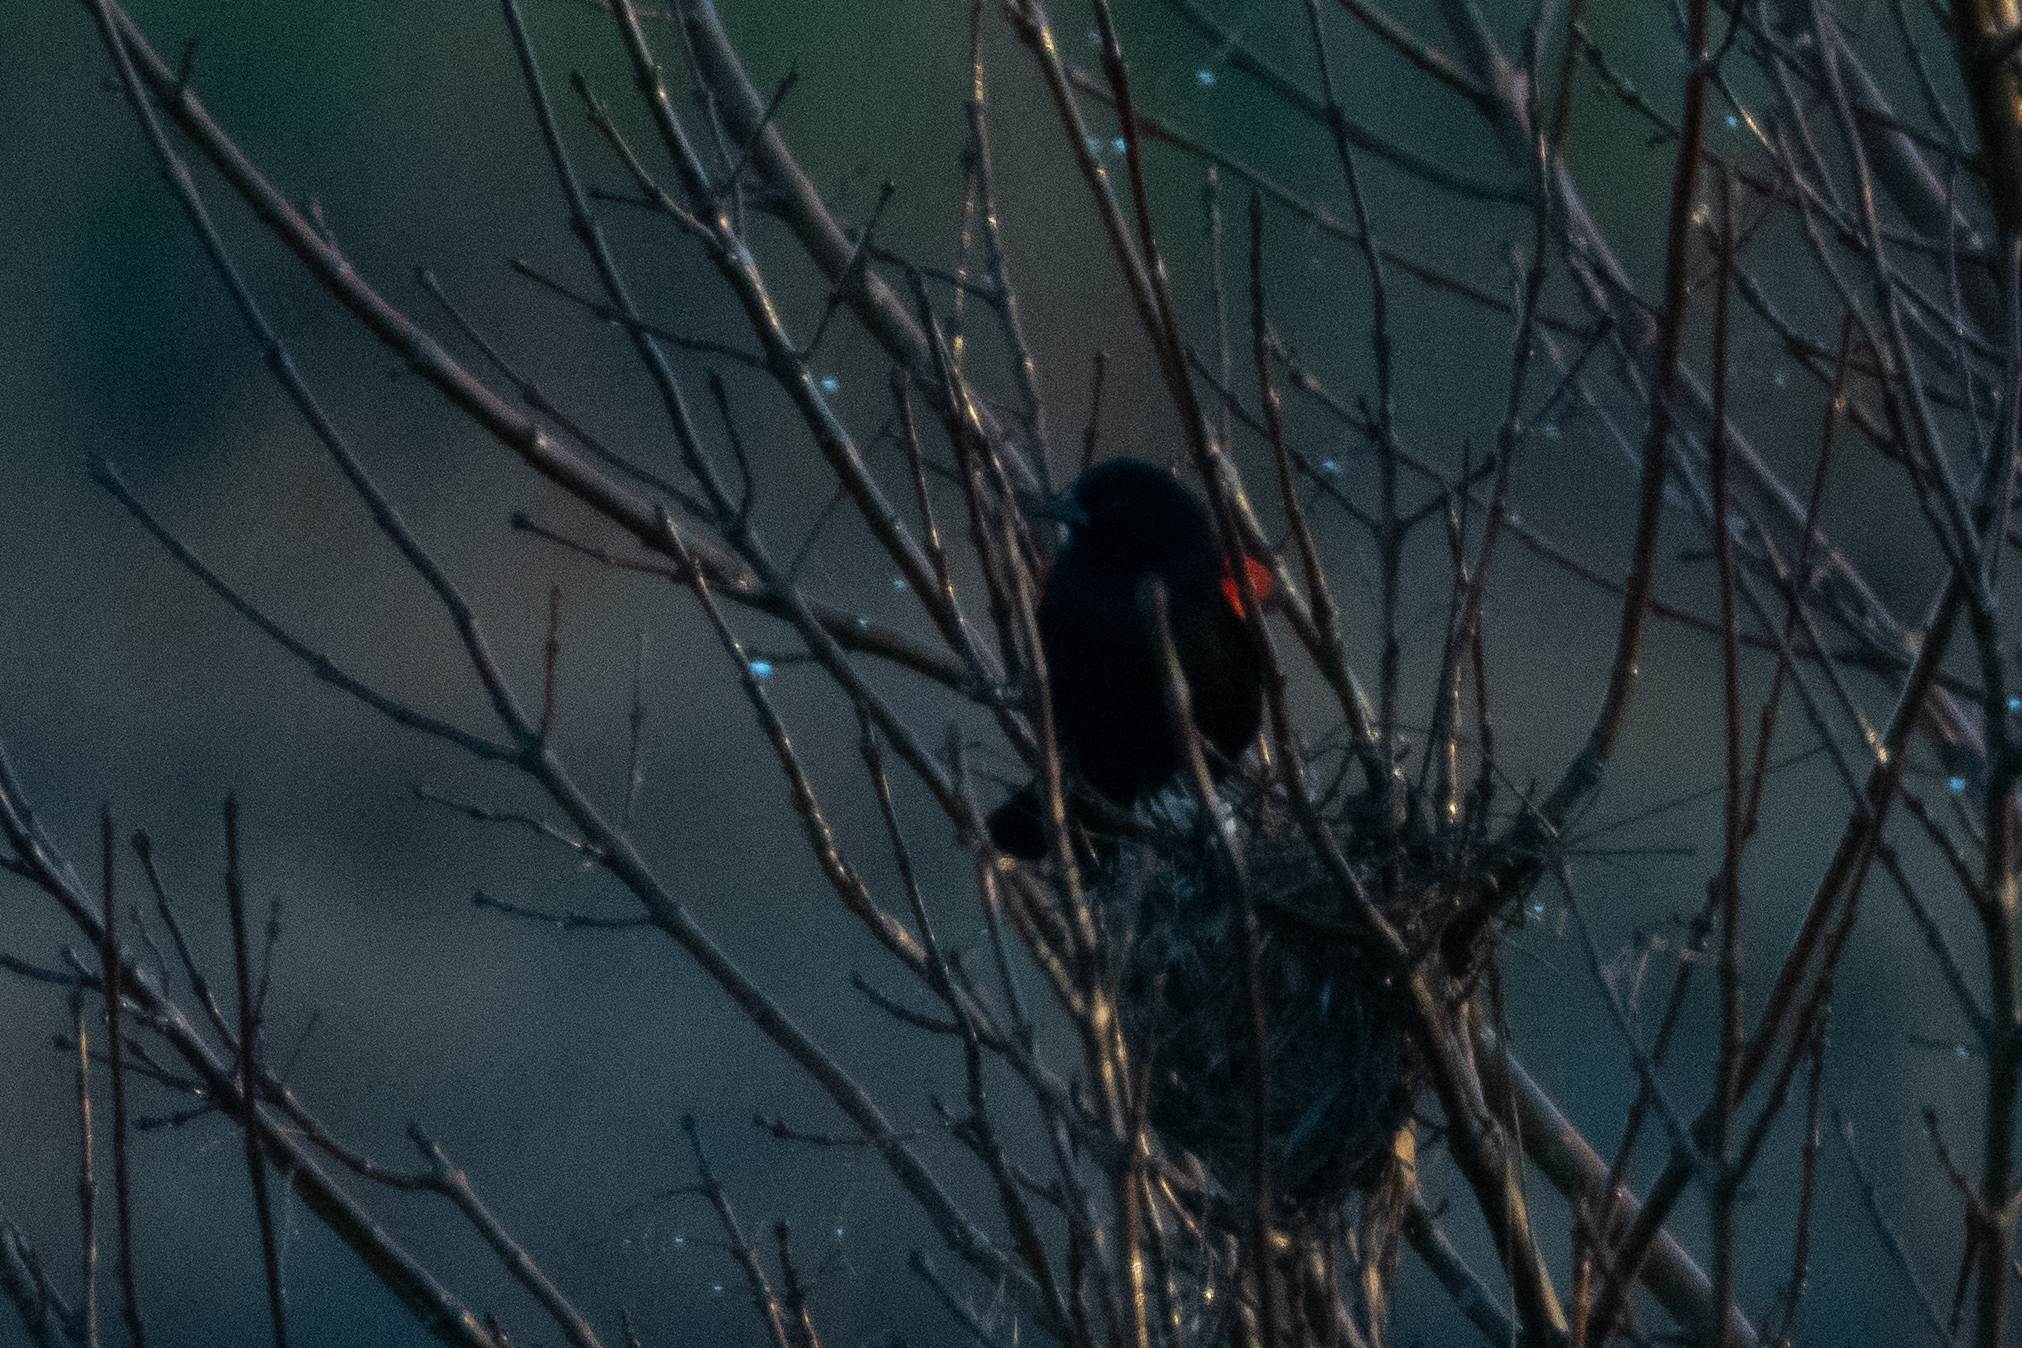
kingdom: Animalia
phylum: Chordata
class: Aves
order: Passeriformes
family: Icteridae
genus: Agelaius
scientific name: Agelaius phoeniceus
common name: Red-winged blackbird
